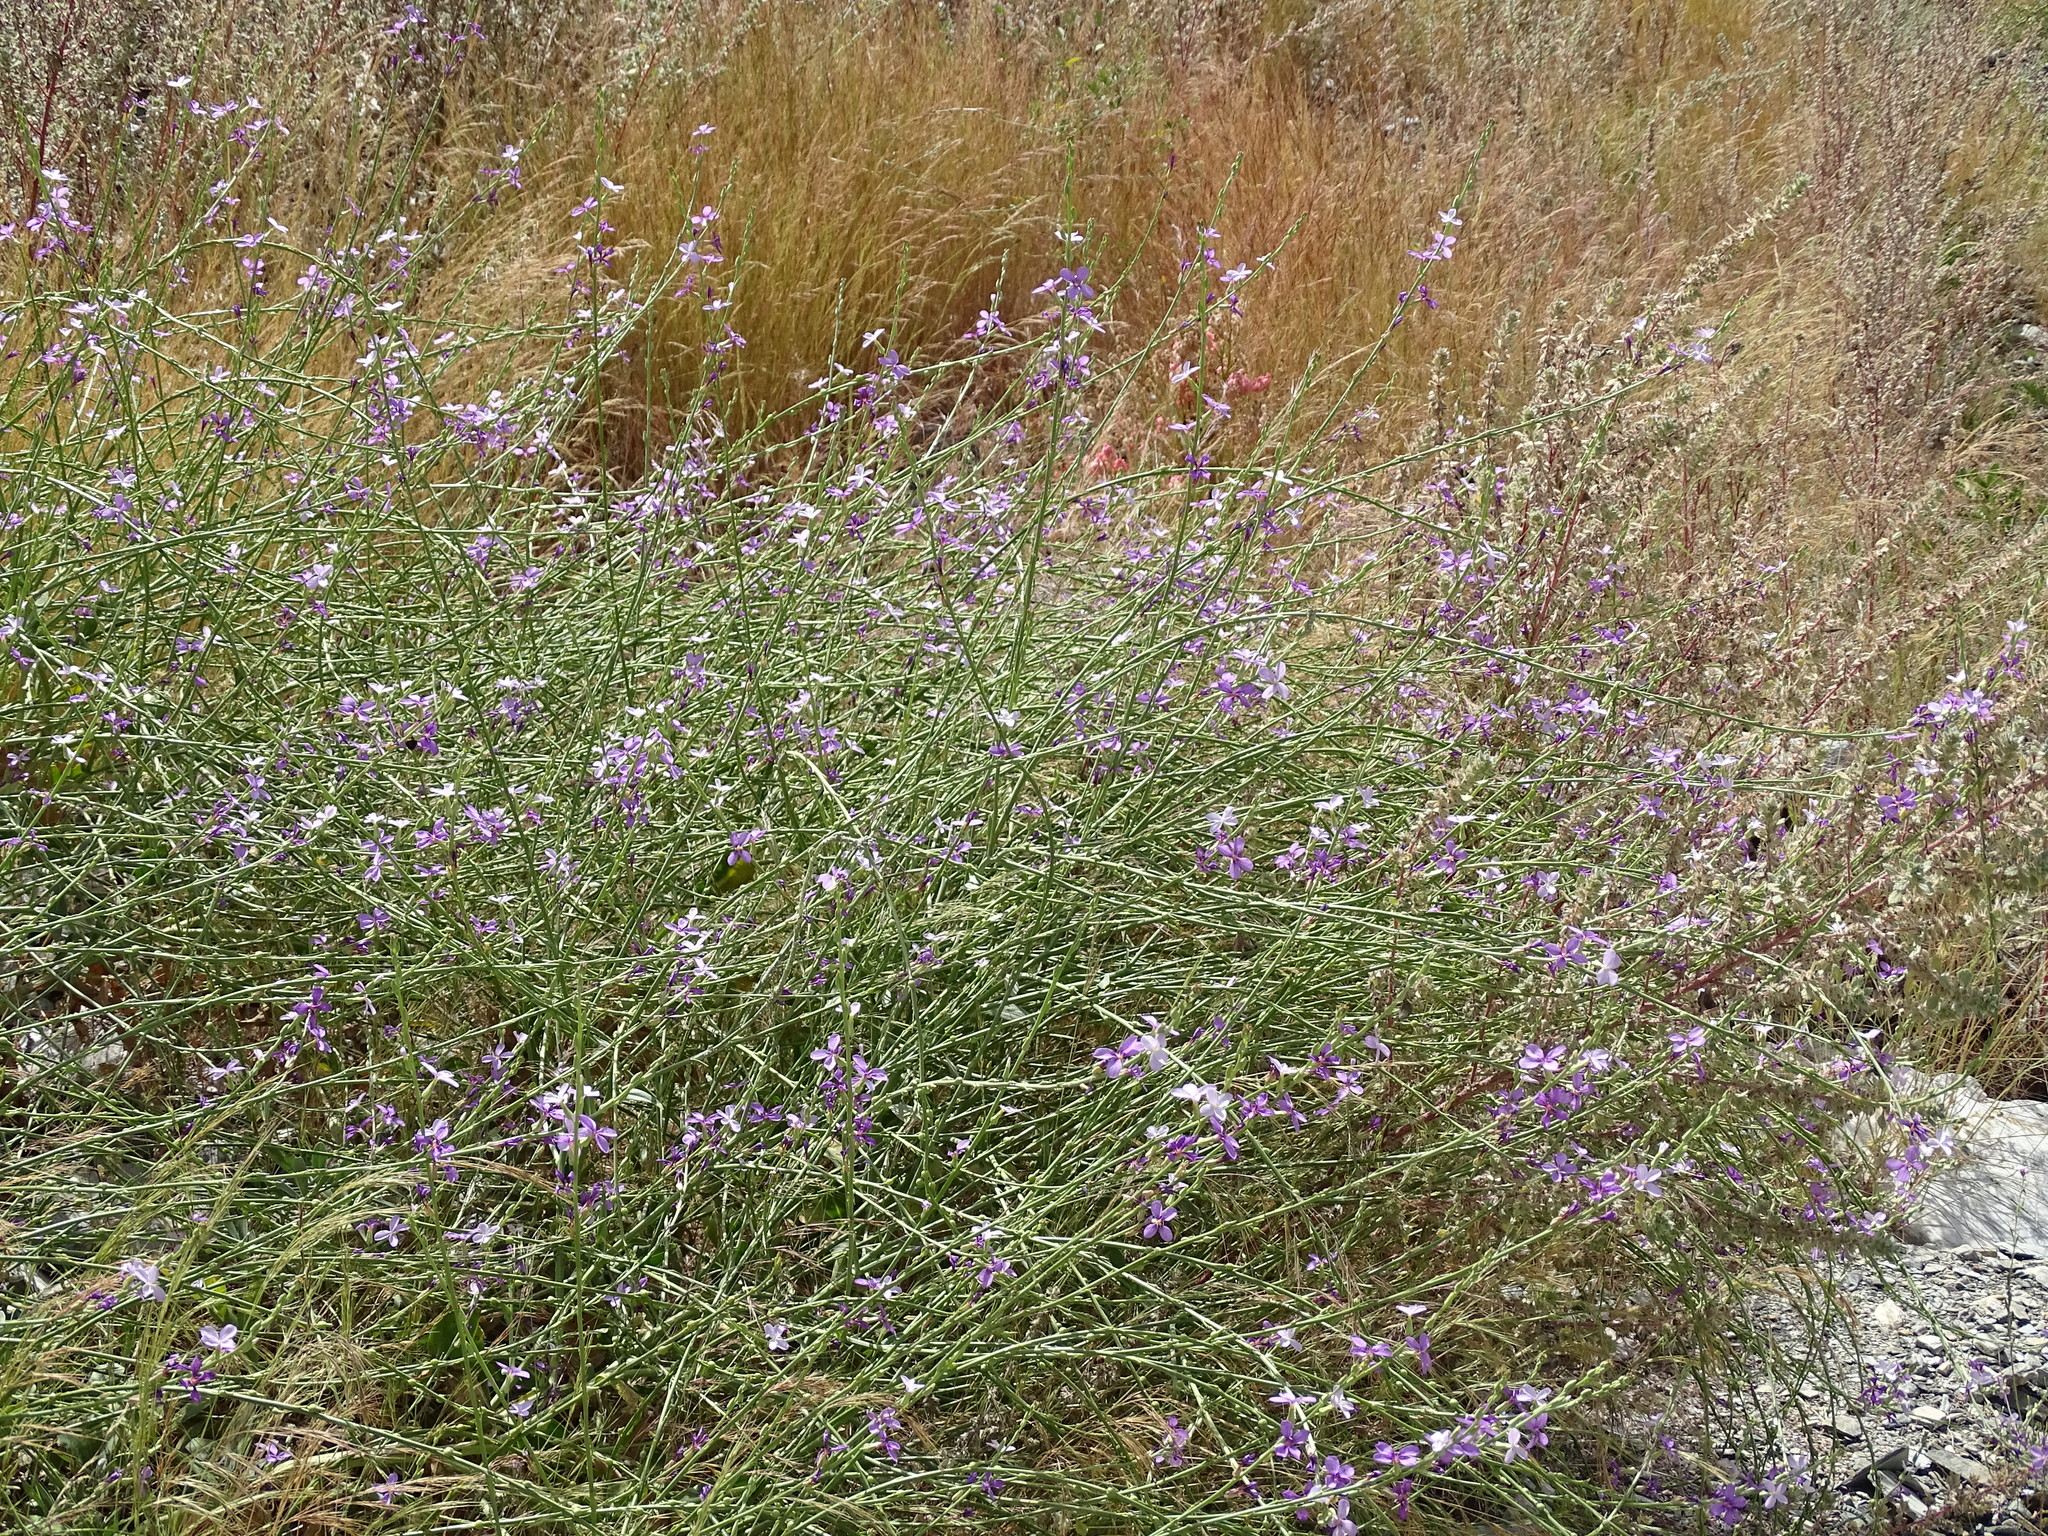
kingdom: Plantae
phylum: Tracheophyta
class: Magnoliopsida
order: Brassicales
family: Brassicaceae
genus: Physorhynchus
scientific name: Physorhynchus chamaerapistrum
